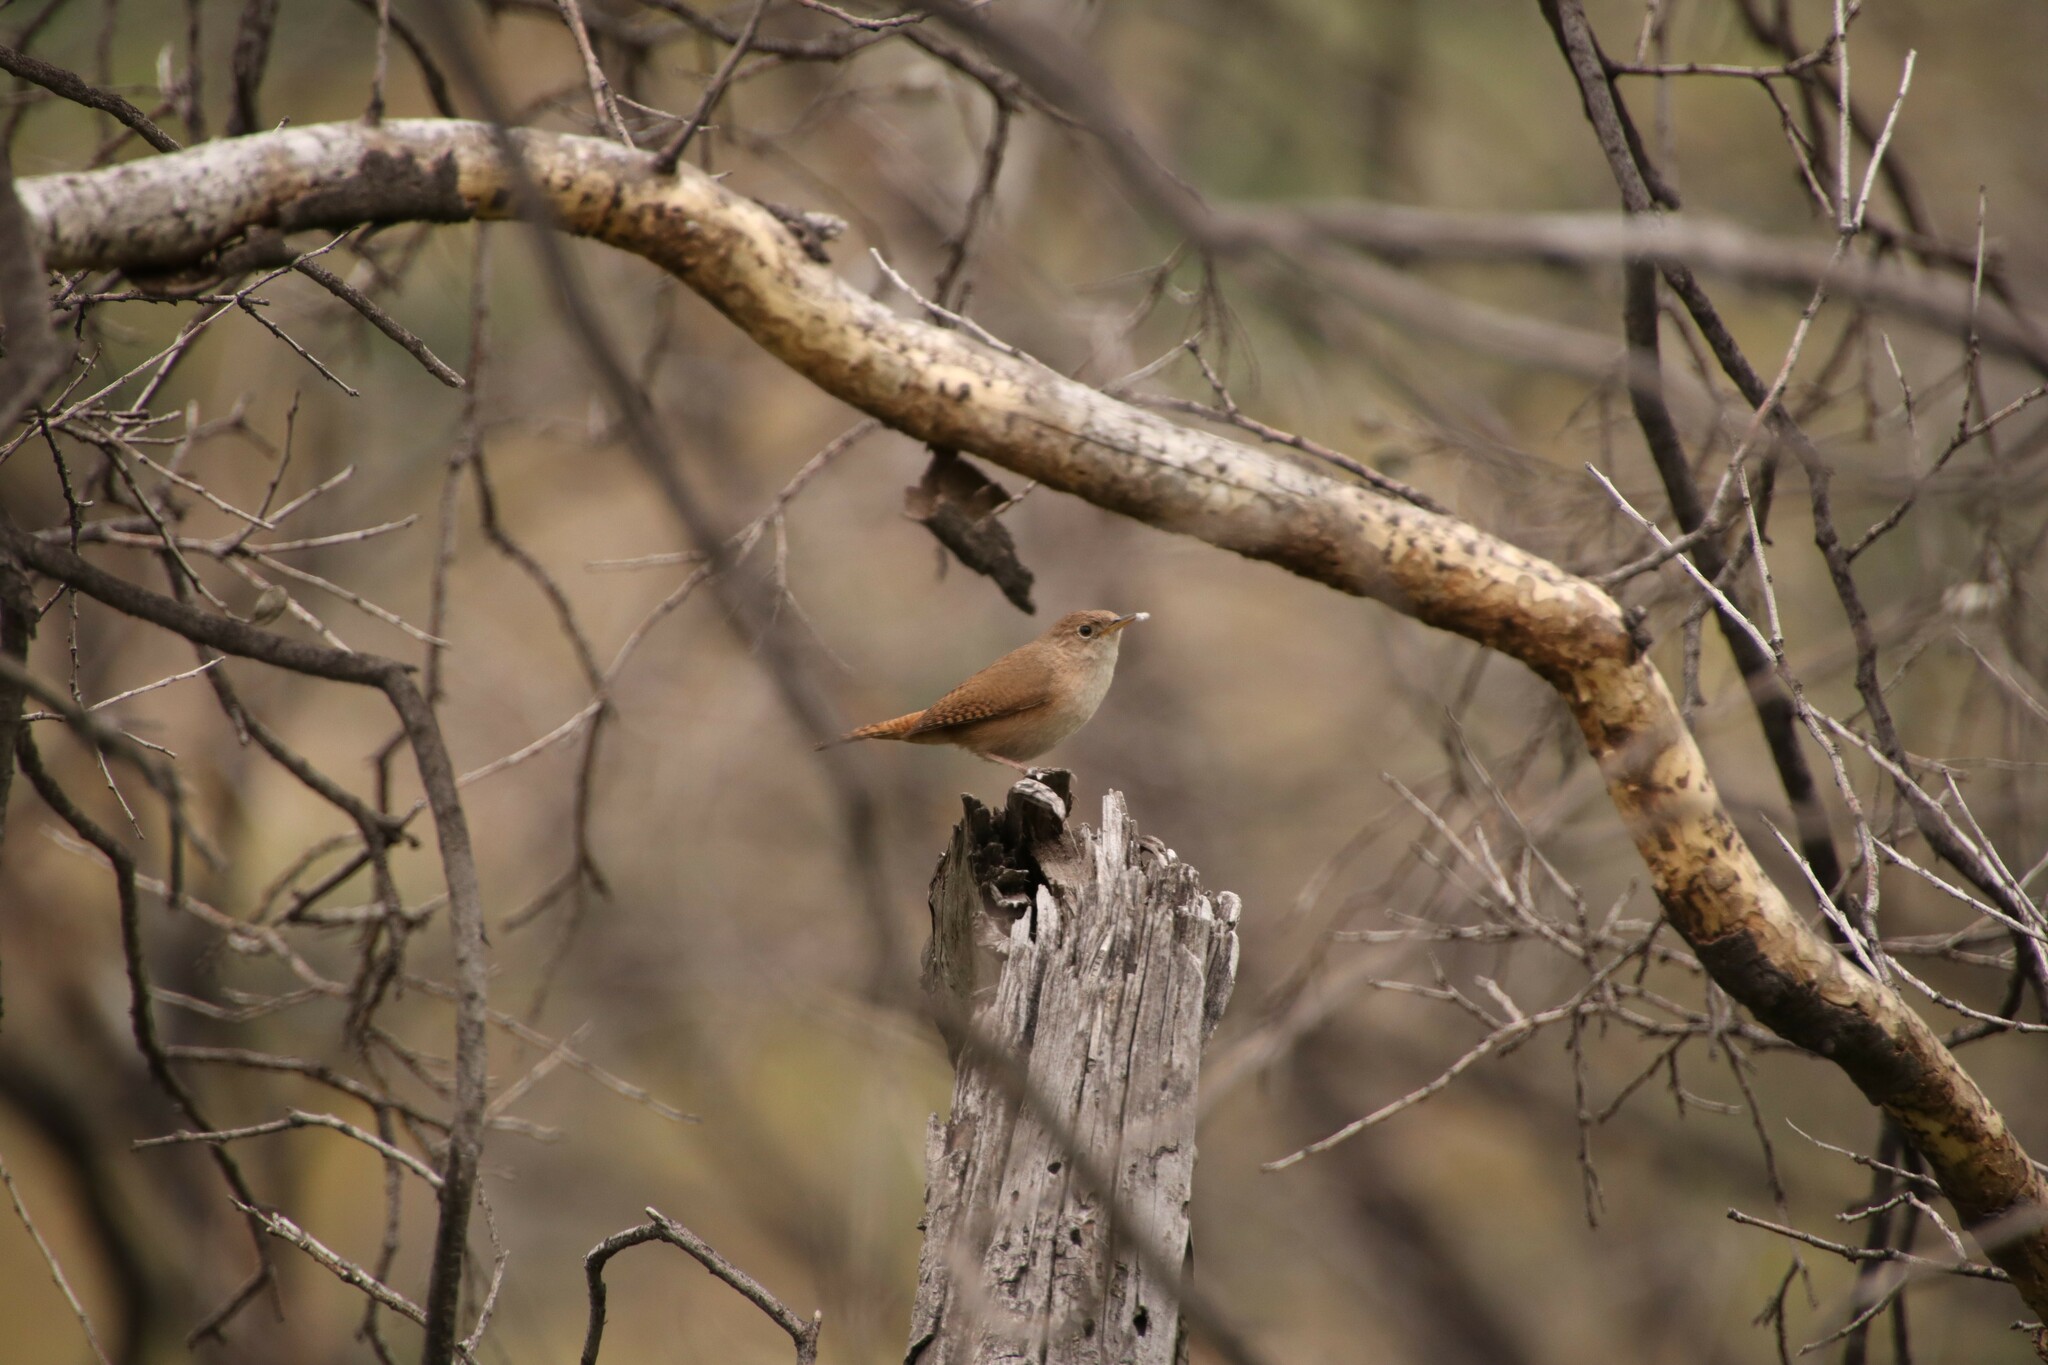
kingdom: Animalia
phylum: Chordata
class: Aves
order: Passeriformes
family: Troglodytidae
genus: Troglodytes
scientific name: Troglodytes aedon
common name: House wren
